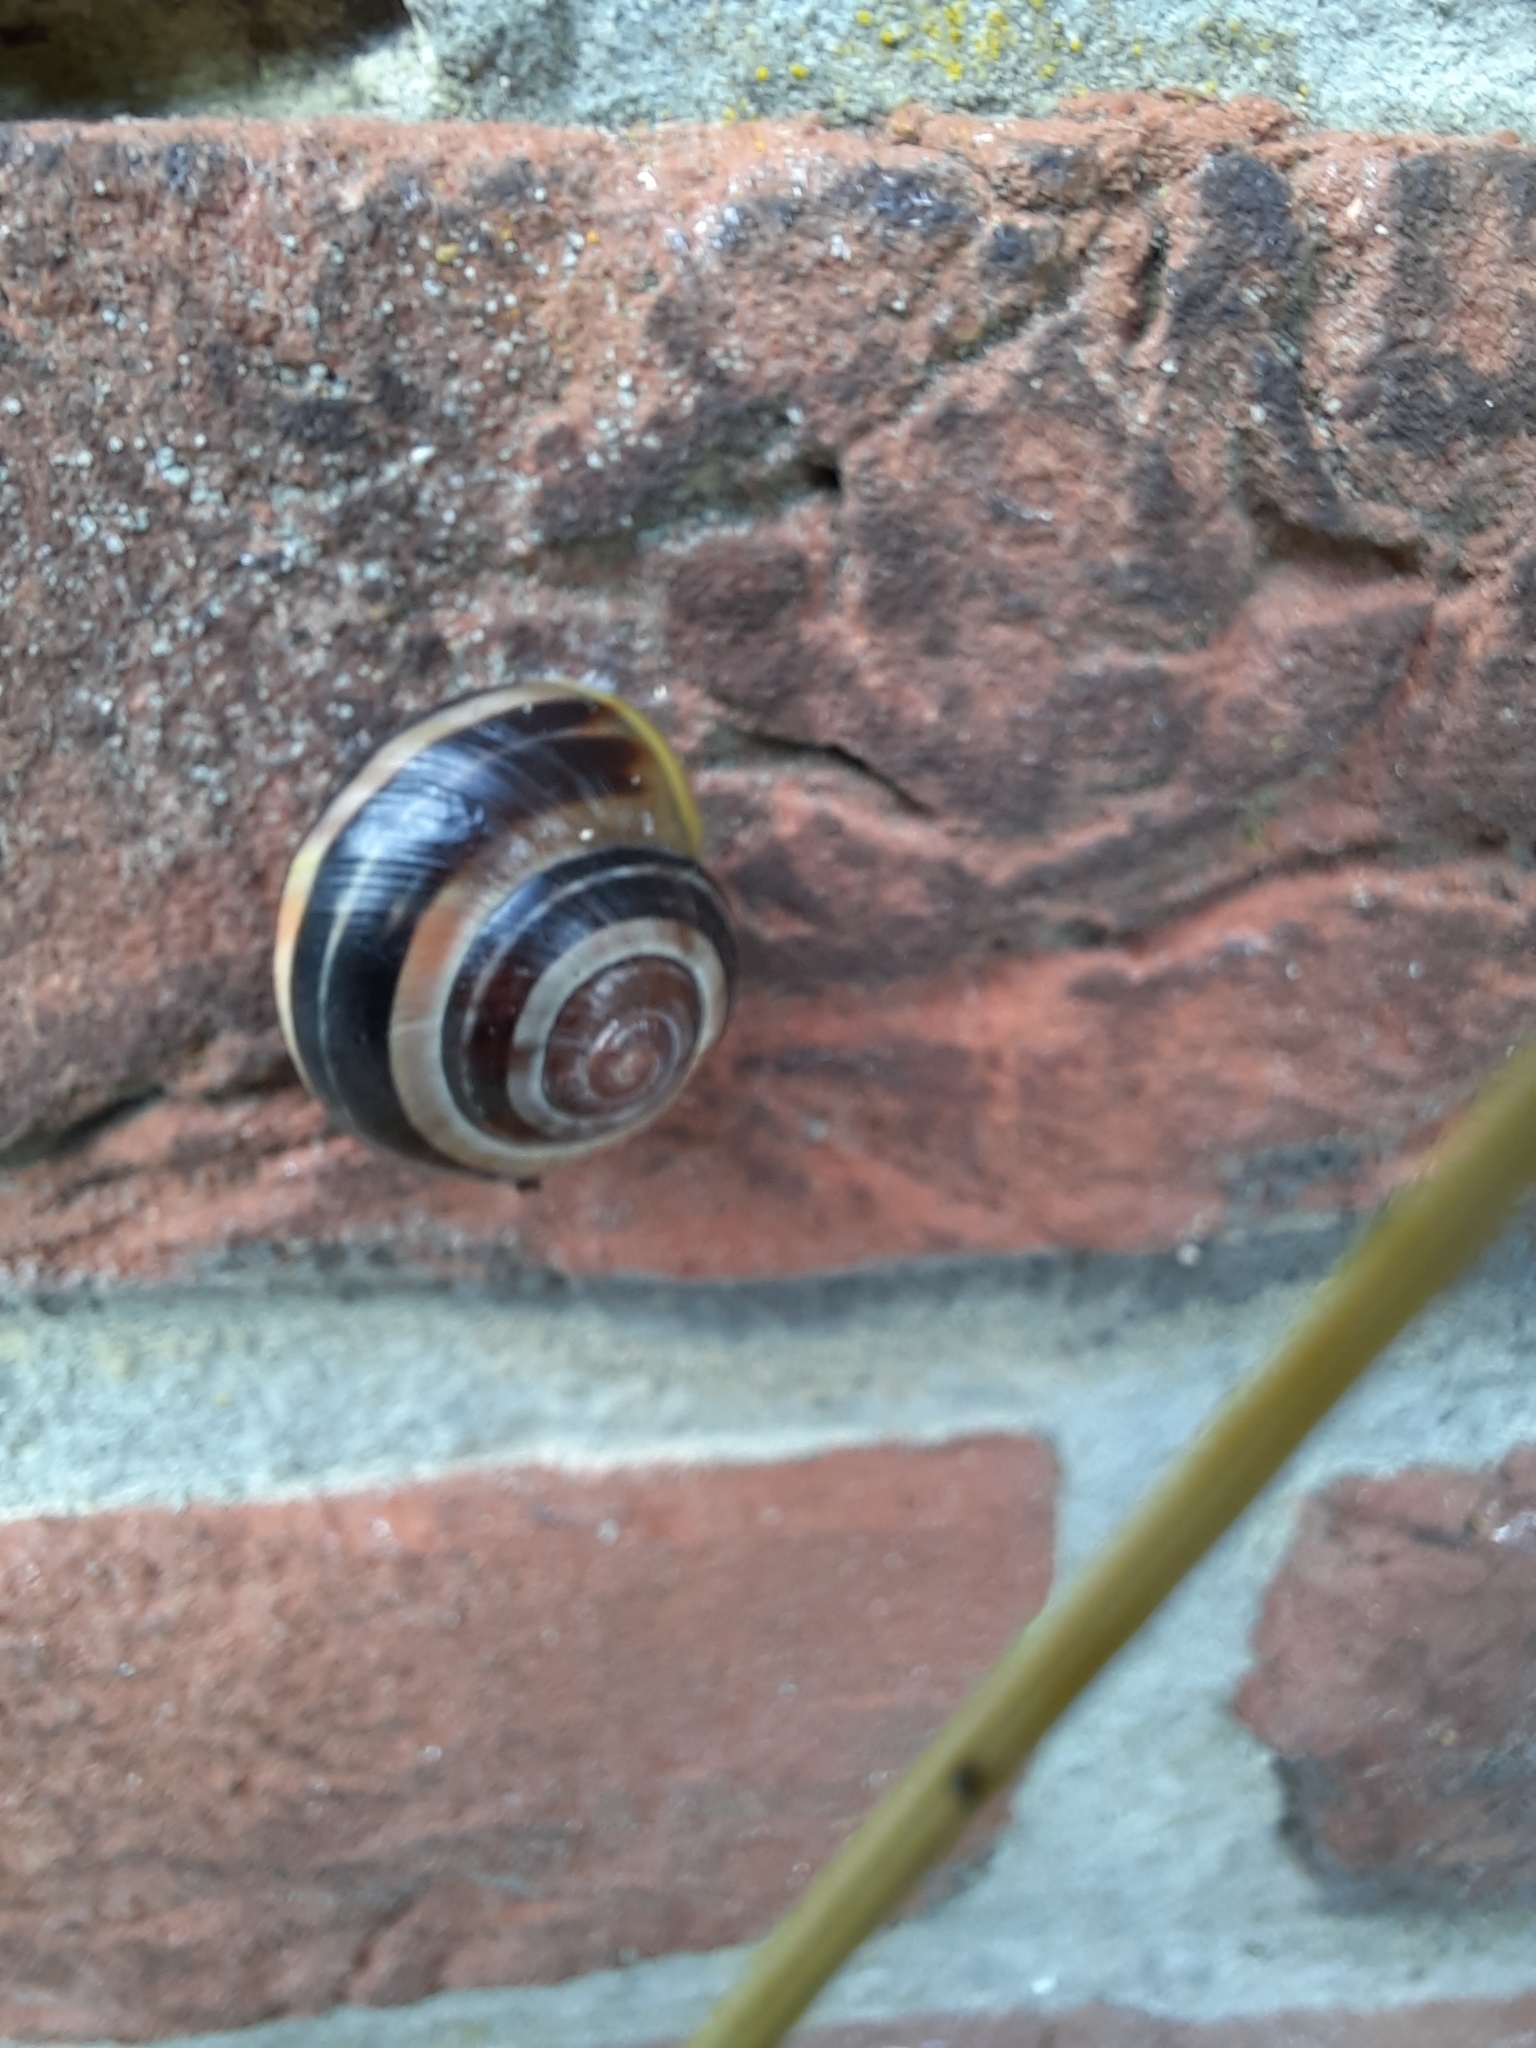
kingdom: Animalia
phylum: Mollusca
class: Gastropoda
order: Stylommatophora
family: Helicidae
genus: Cepaea
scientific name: Cepaea
